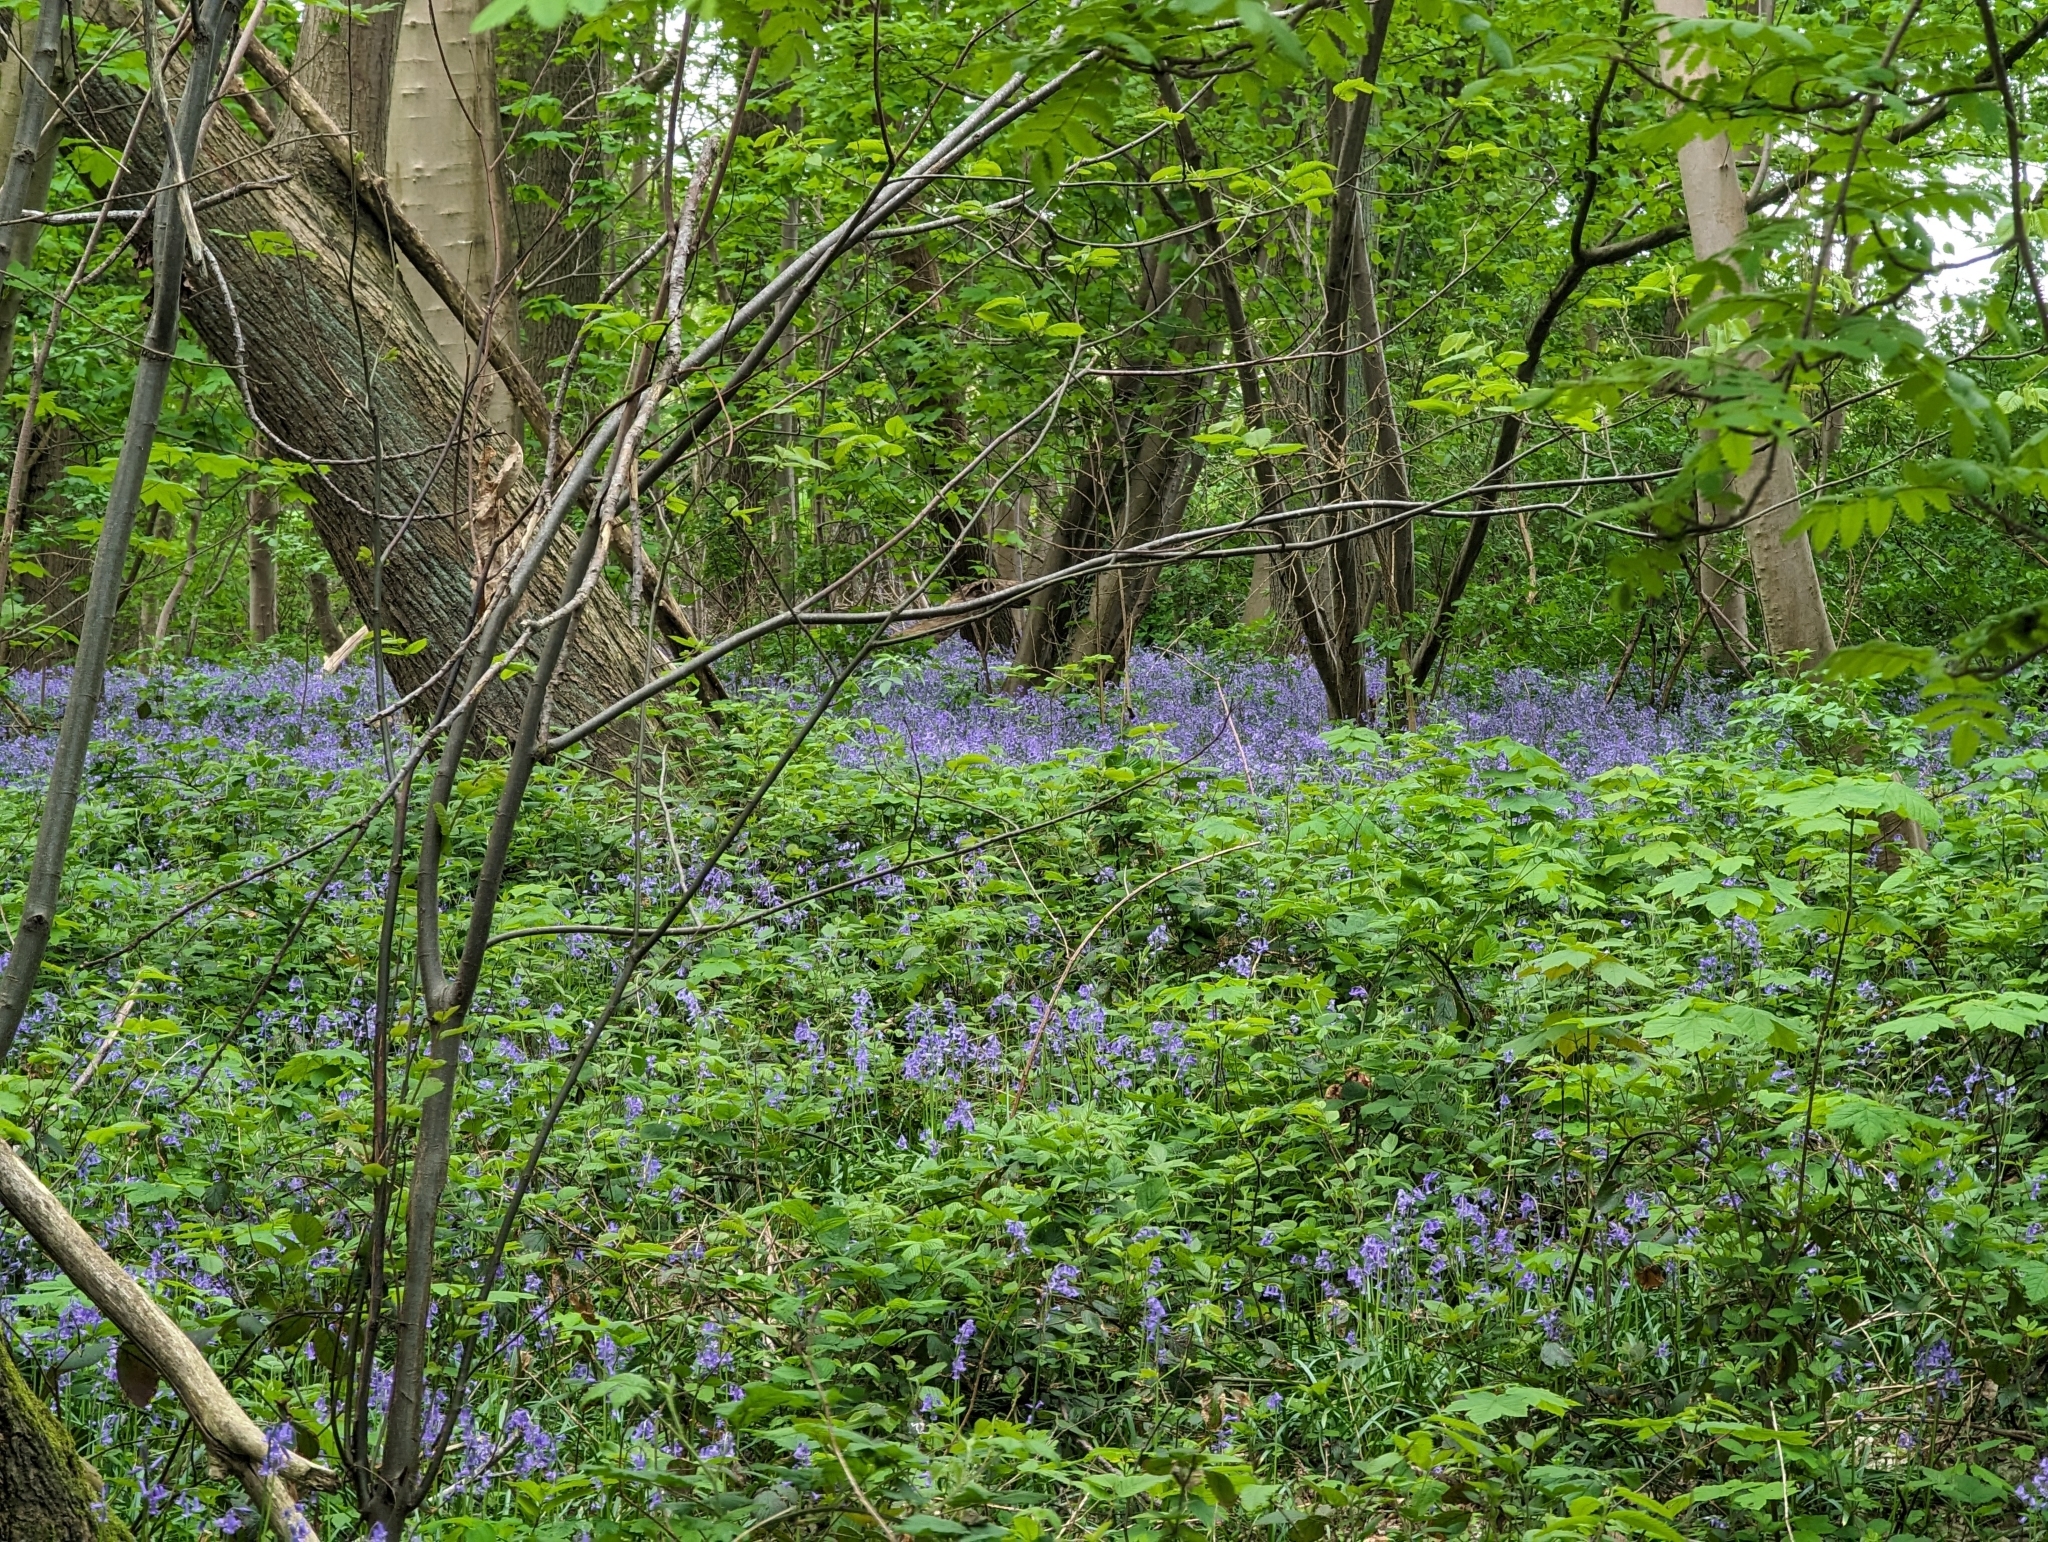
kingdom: Plantae
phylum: Tracheophyta
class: Liliopsida
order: Asparagales
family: Asparagaceae
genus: Hyacinthoides
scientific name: Hyacinthoides non-scripta
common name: Bluebell
